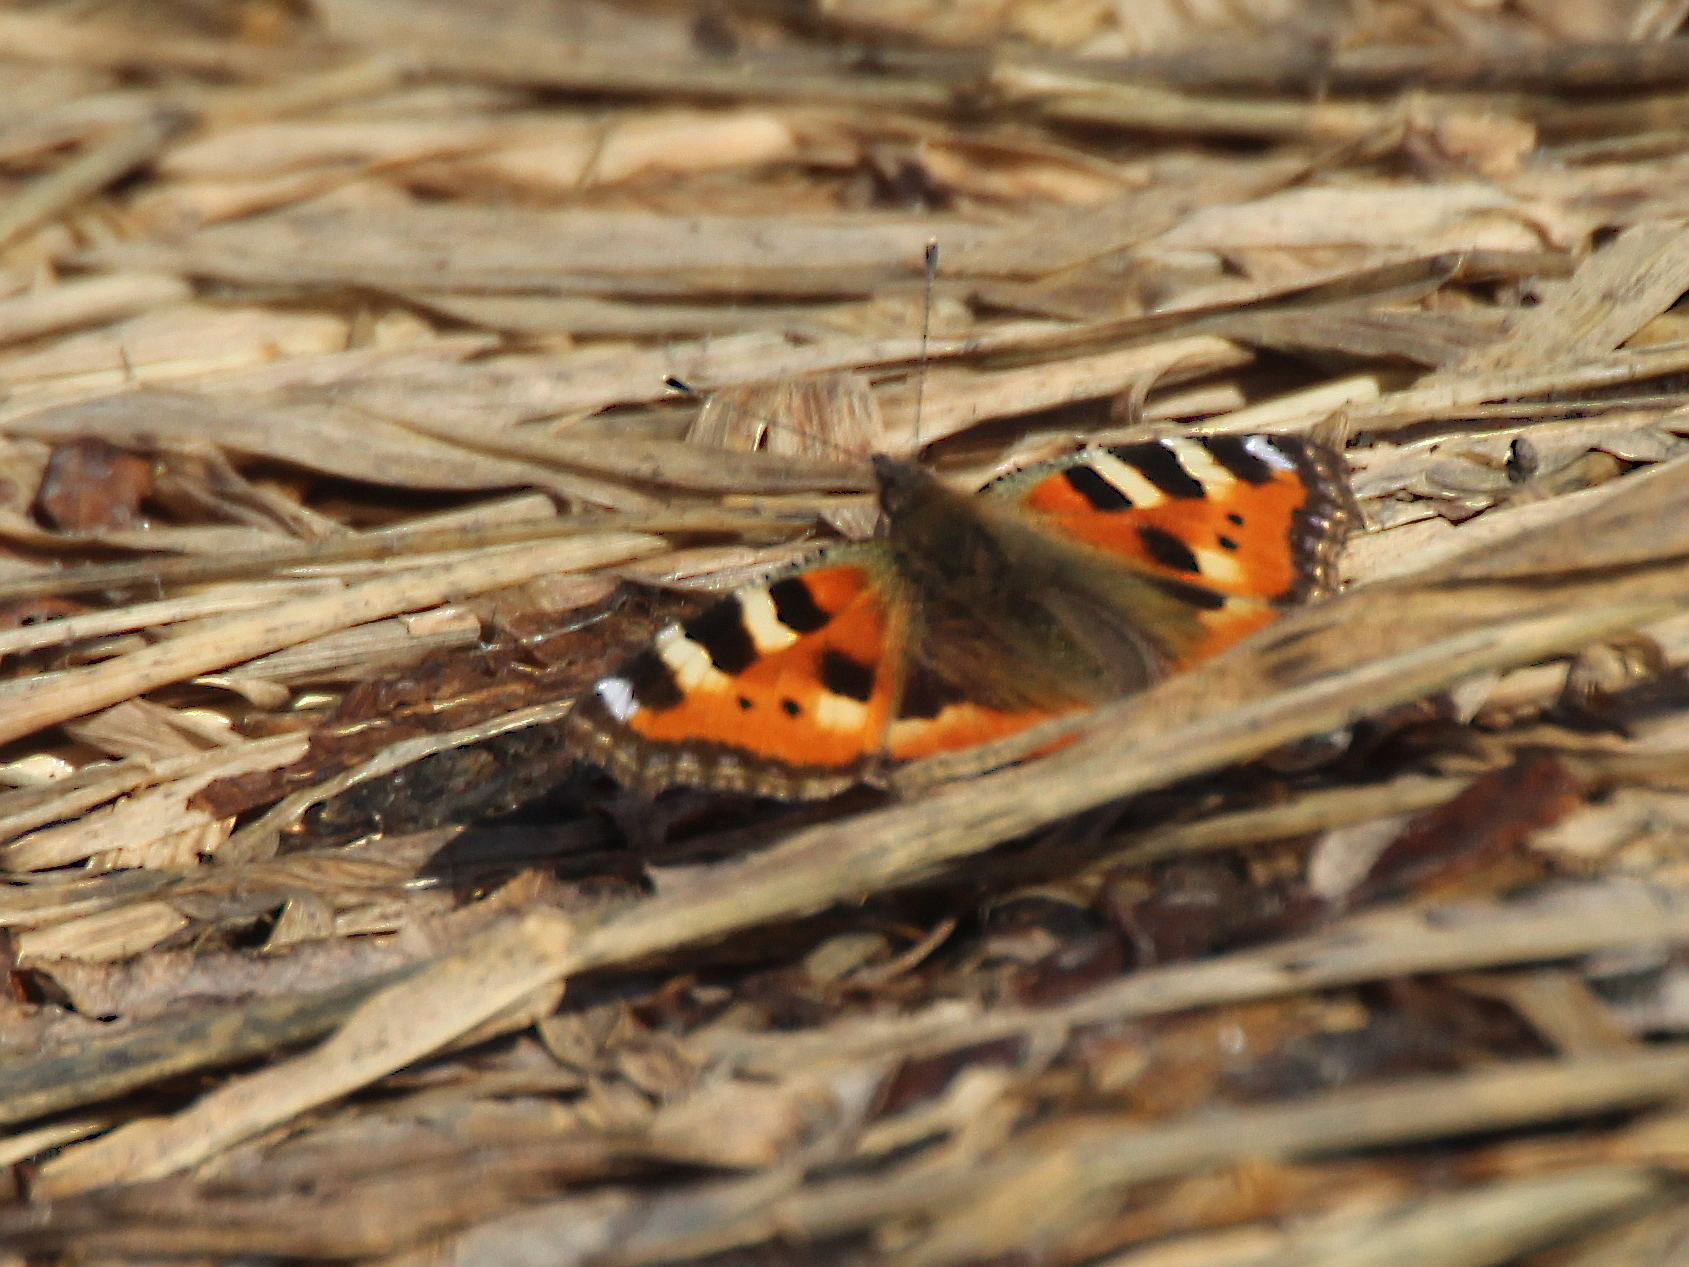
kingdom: Animalia
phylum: Arthropoda
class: Insecta
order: Lepidoptera
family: Nymphalidae
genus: Aglais
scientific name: Aglais urticae
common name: Small tortoiseshell
